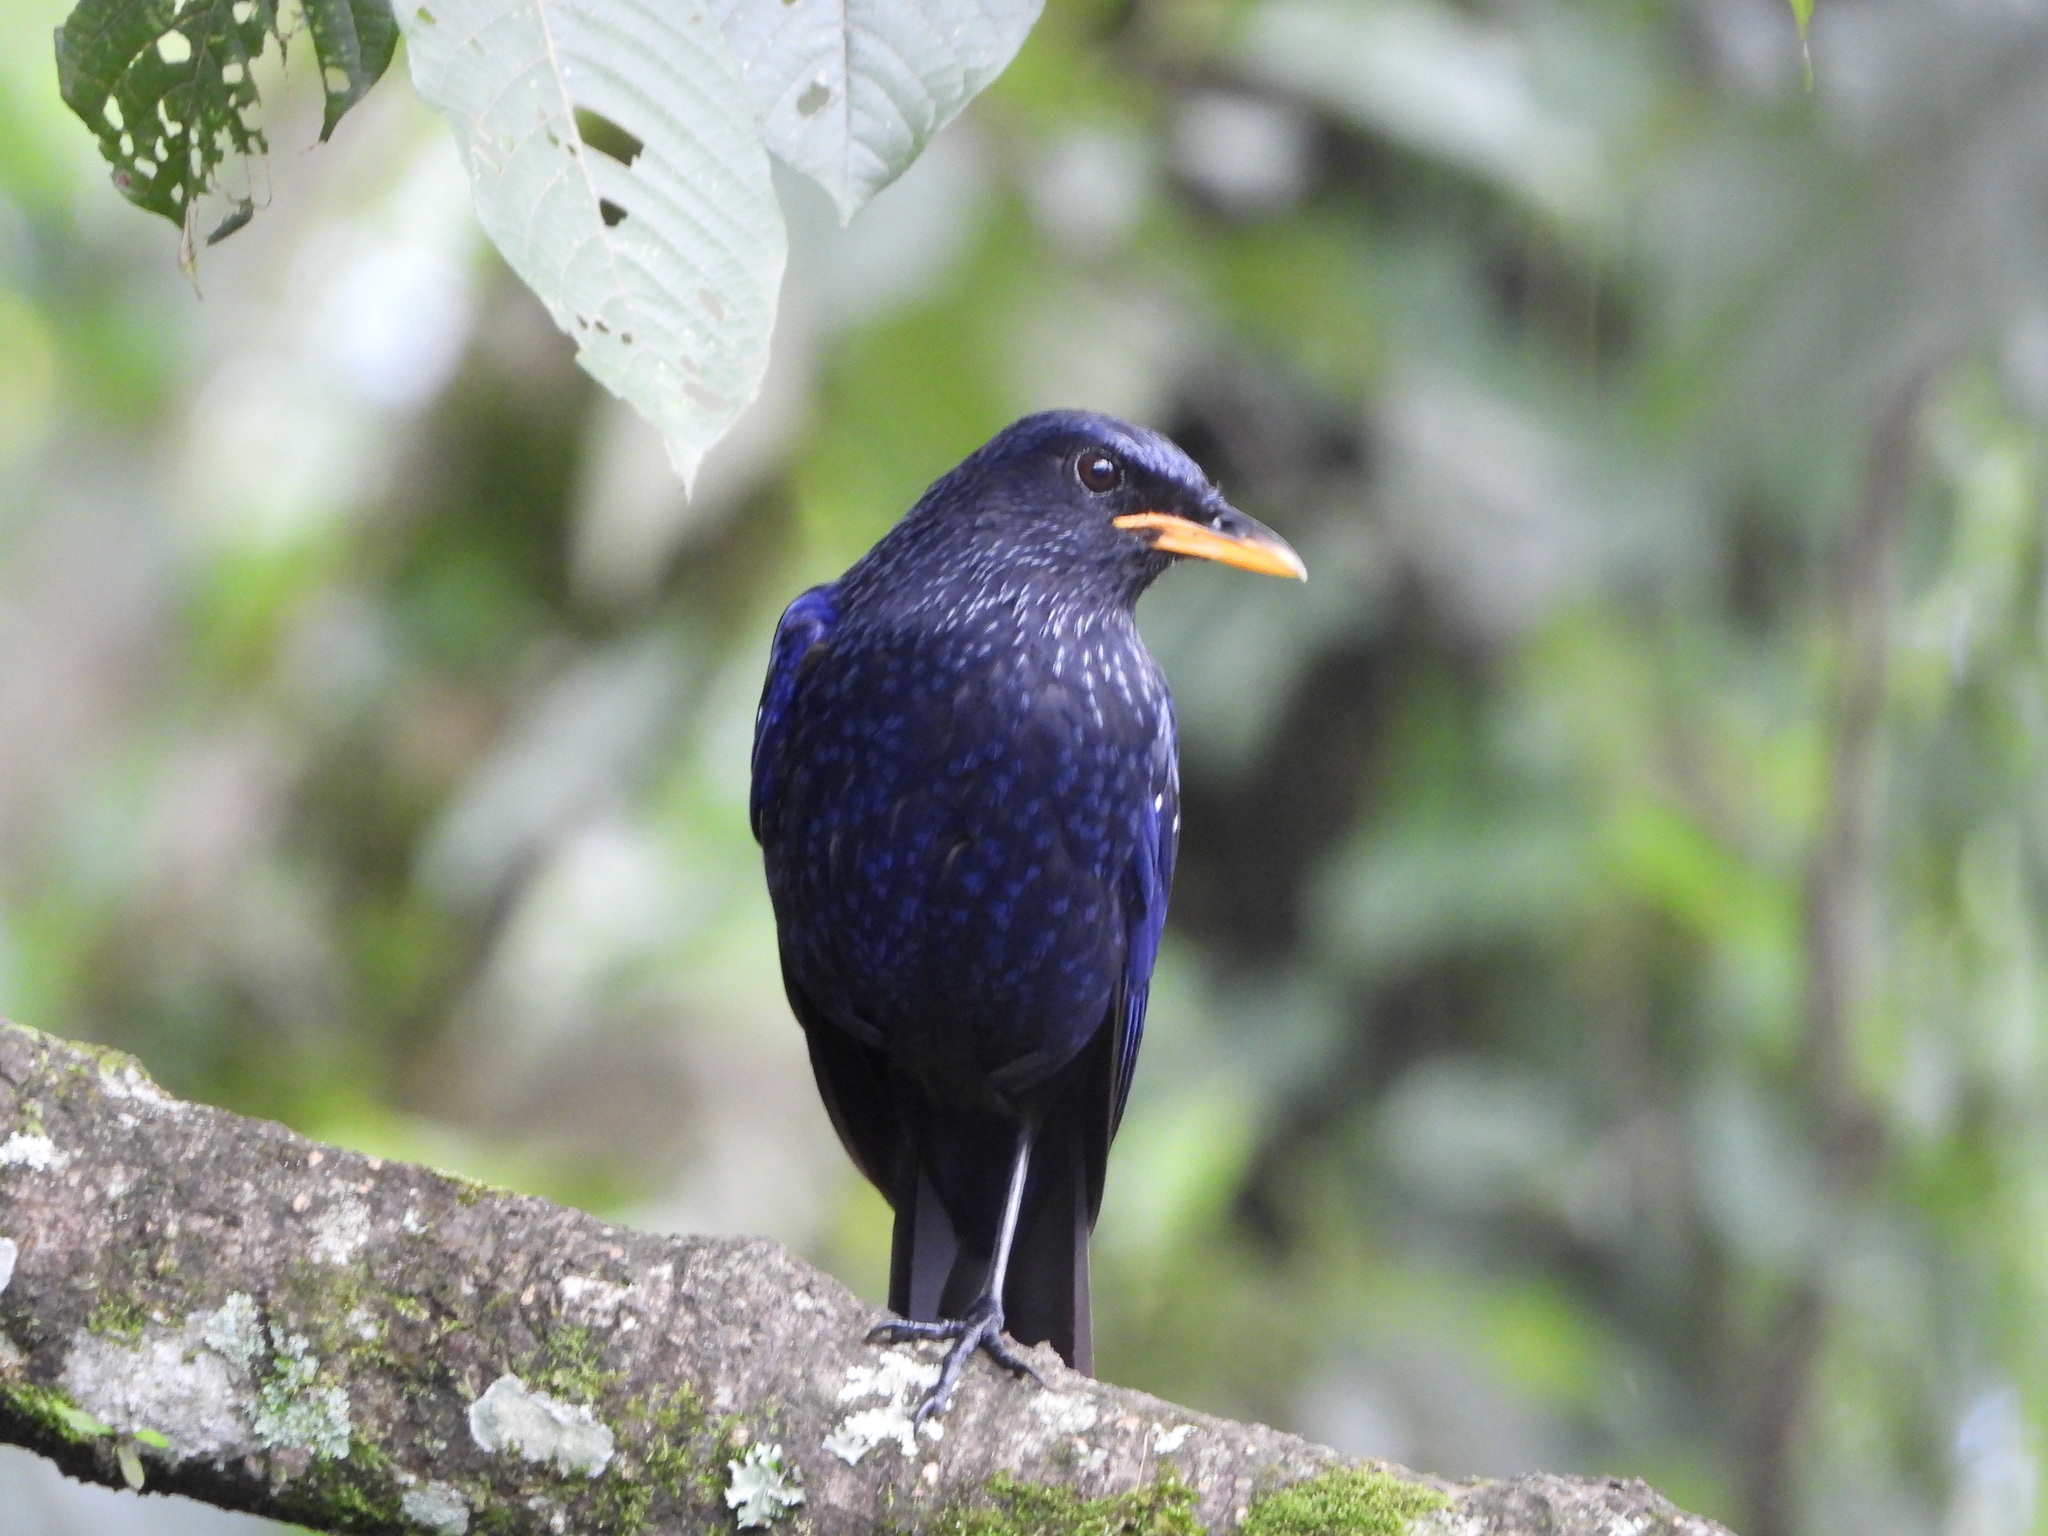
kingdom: Animalia
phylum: Chordata
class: Aves
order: Passeriformes
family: Muscicapidae
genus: Myophonus
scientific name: Myophonus caeruleus
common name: Blue whistling-thrush
